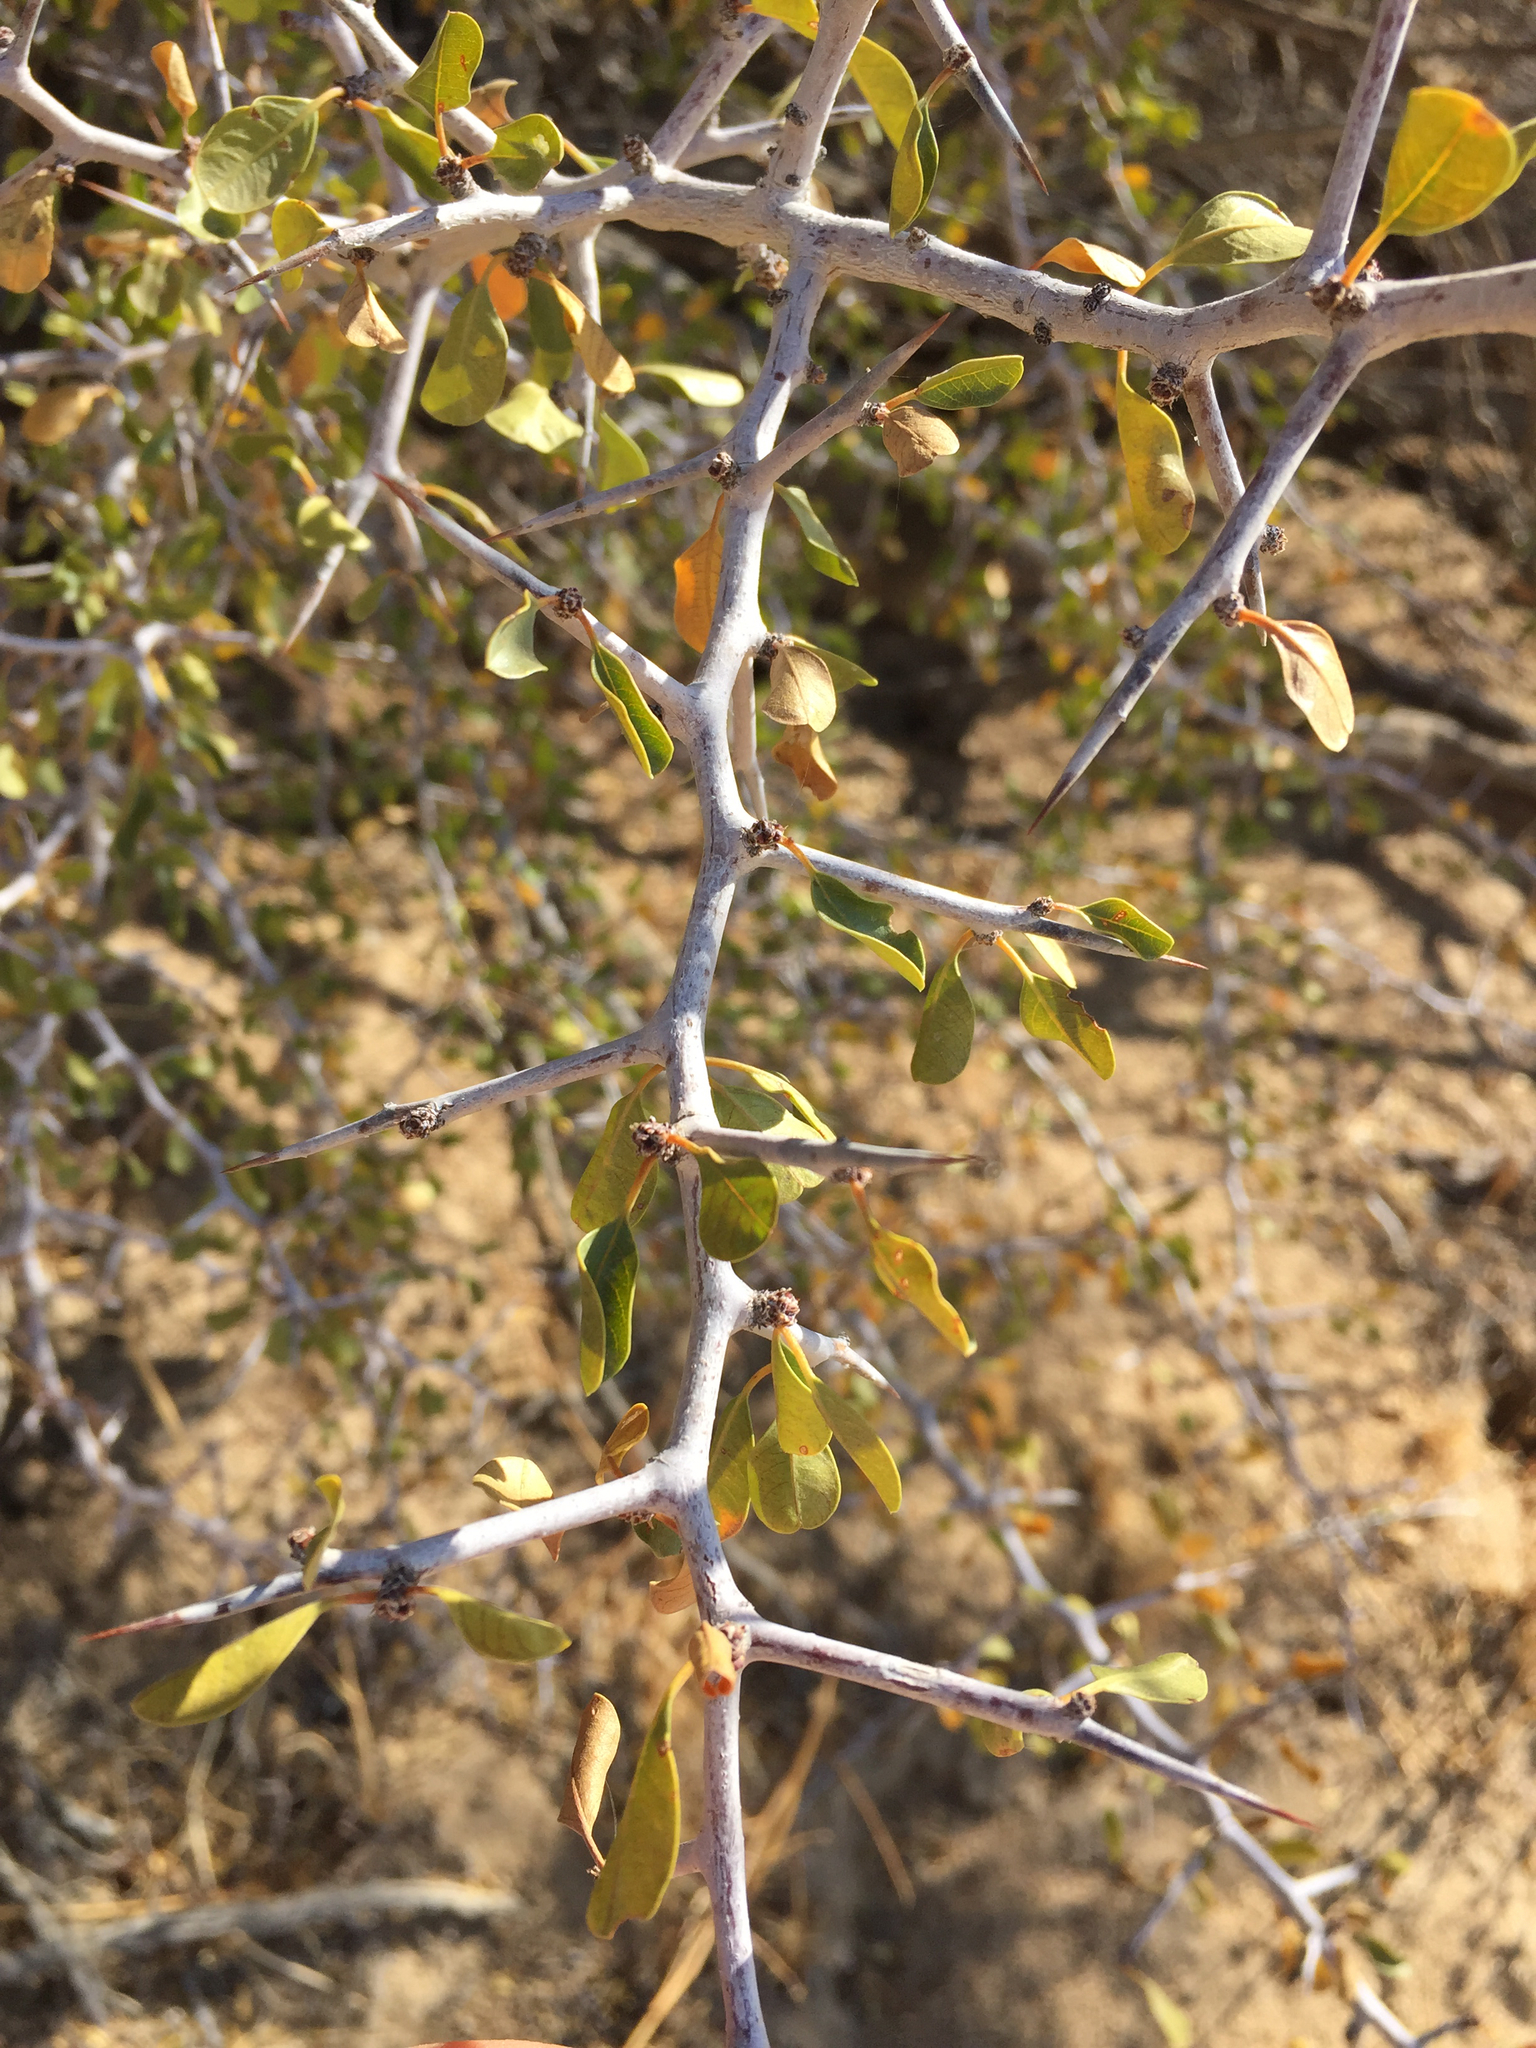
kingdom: Plantae
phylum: Tracheophyta
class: Magnoliopsida
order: Rosales
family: Rhamnaceae
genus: Pseudoziziphus
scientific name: Pseudoziziphus parryi
